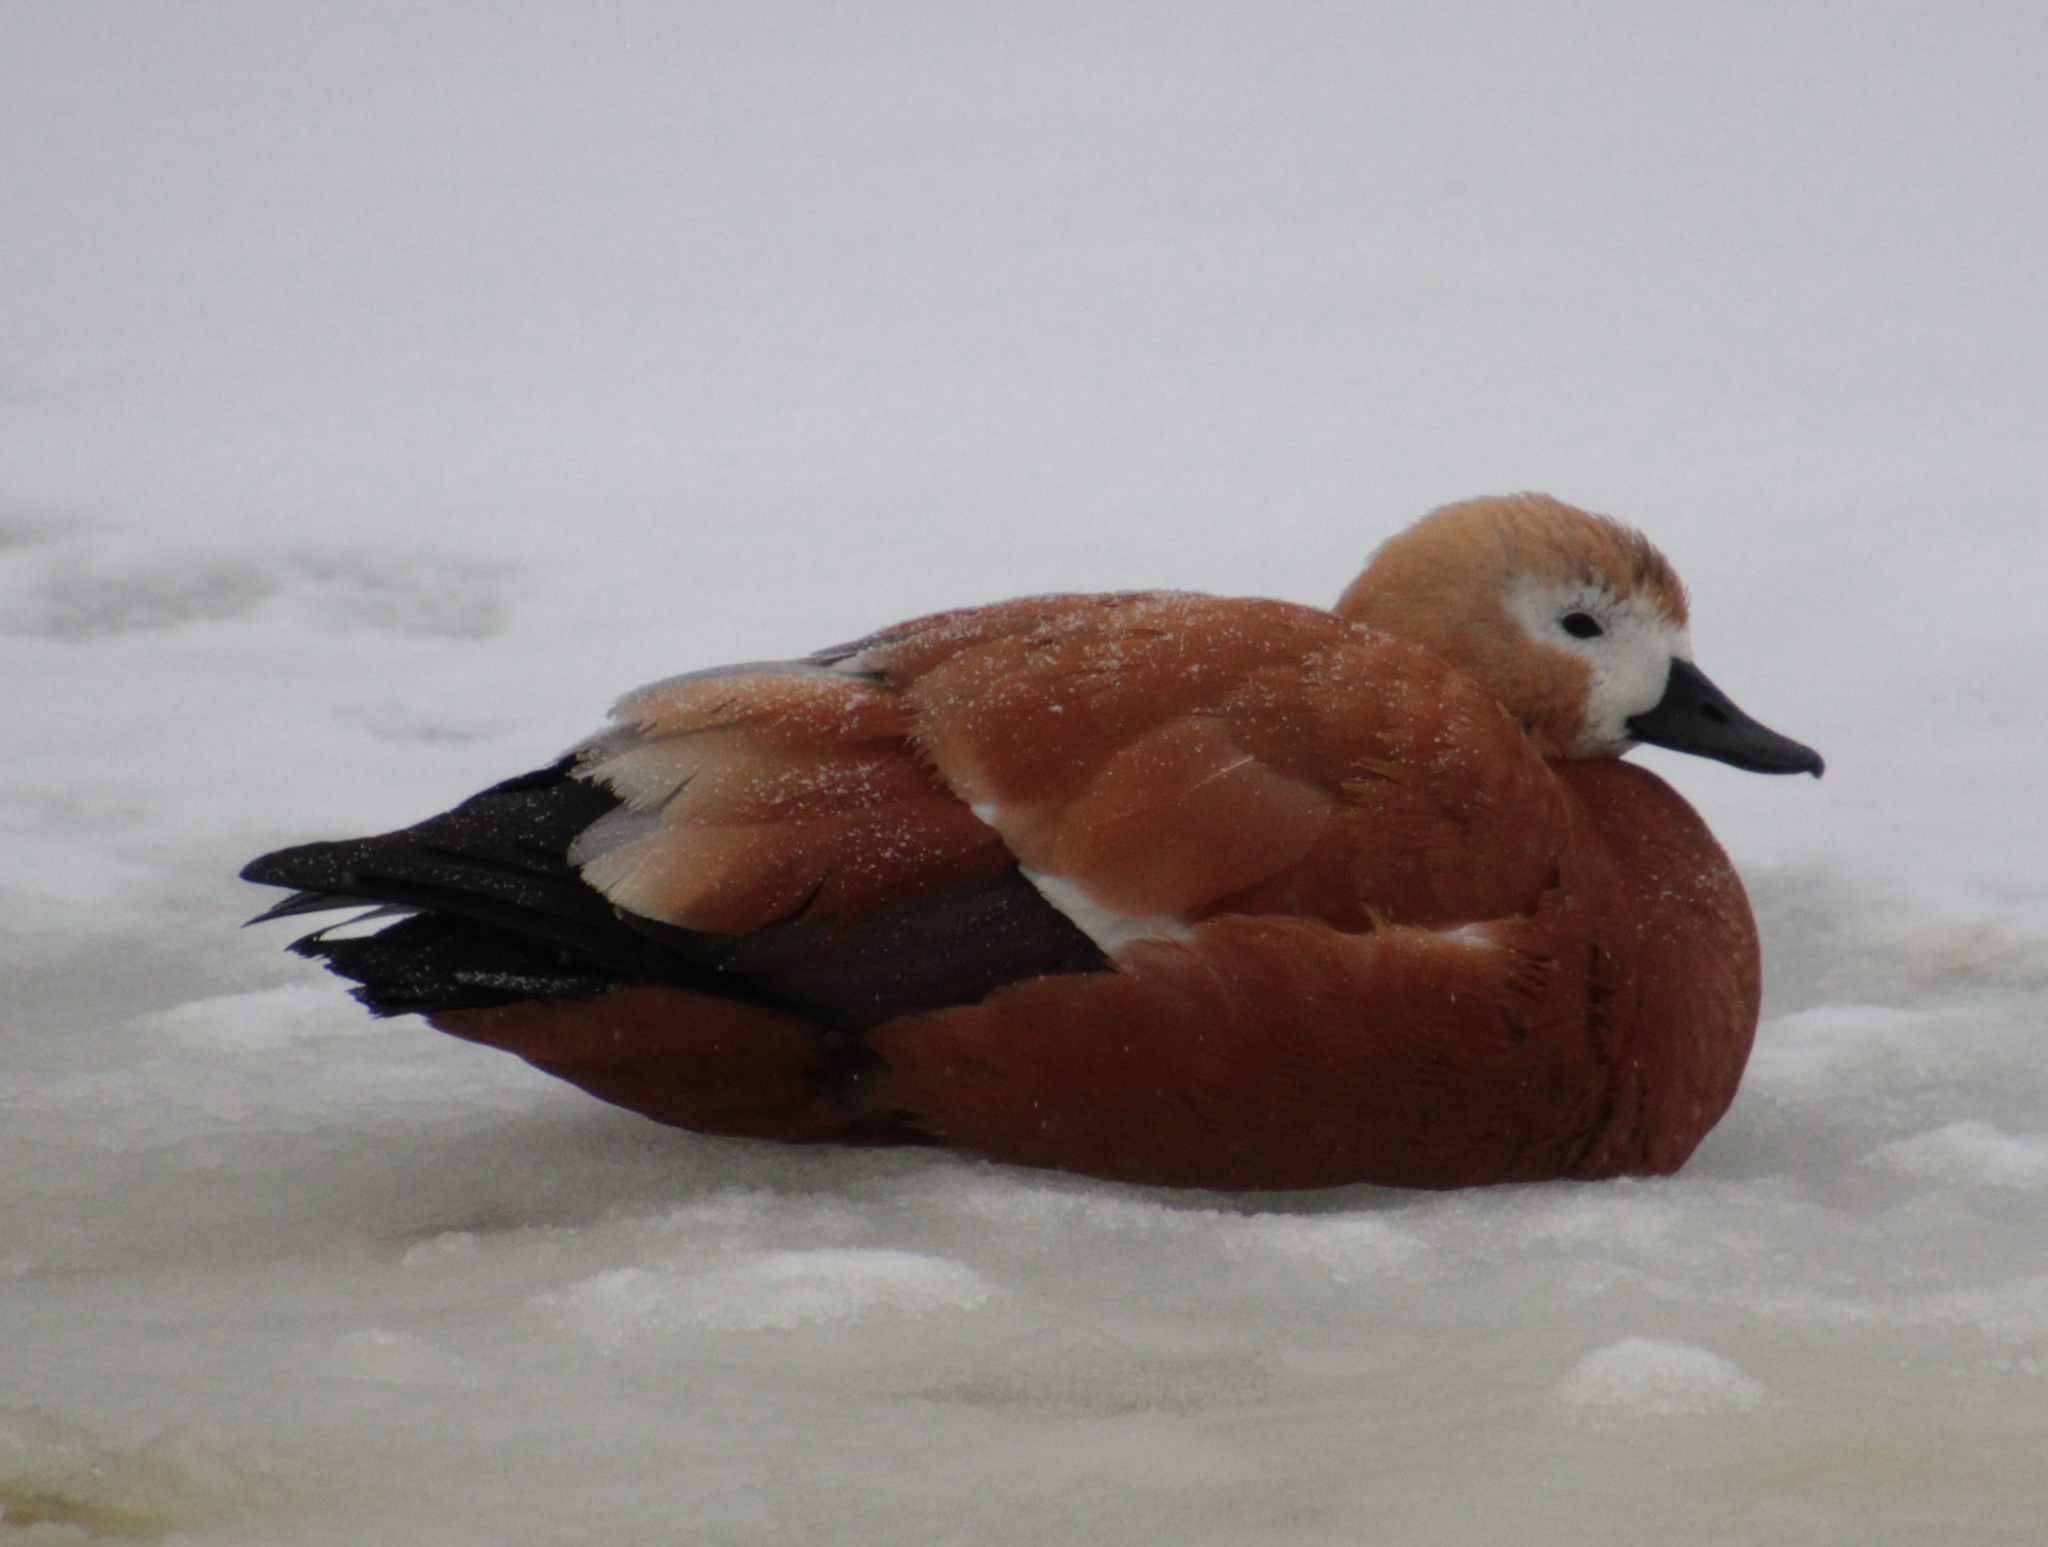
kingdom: Animalia
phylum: Chordata
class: Aves
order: Anseriformes
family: Anatidae
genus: Tadorna
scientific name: Tadorna ferruginea
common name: Ruddy shelduck
